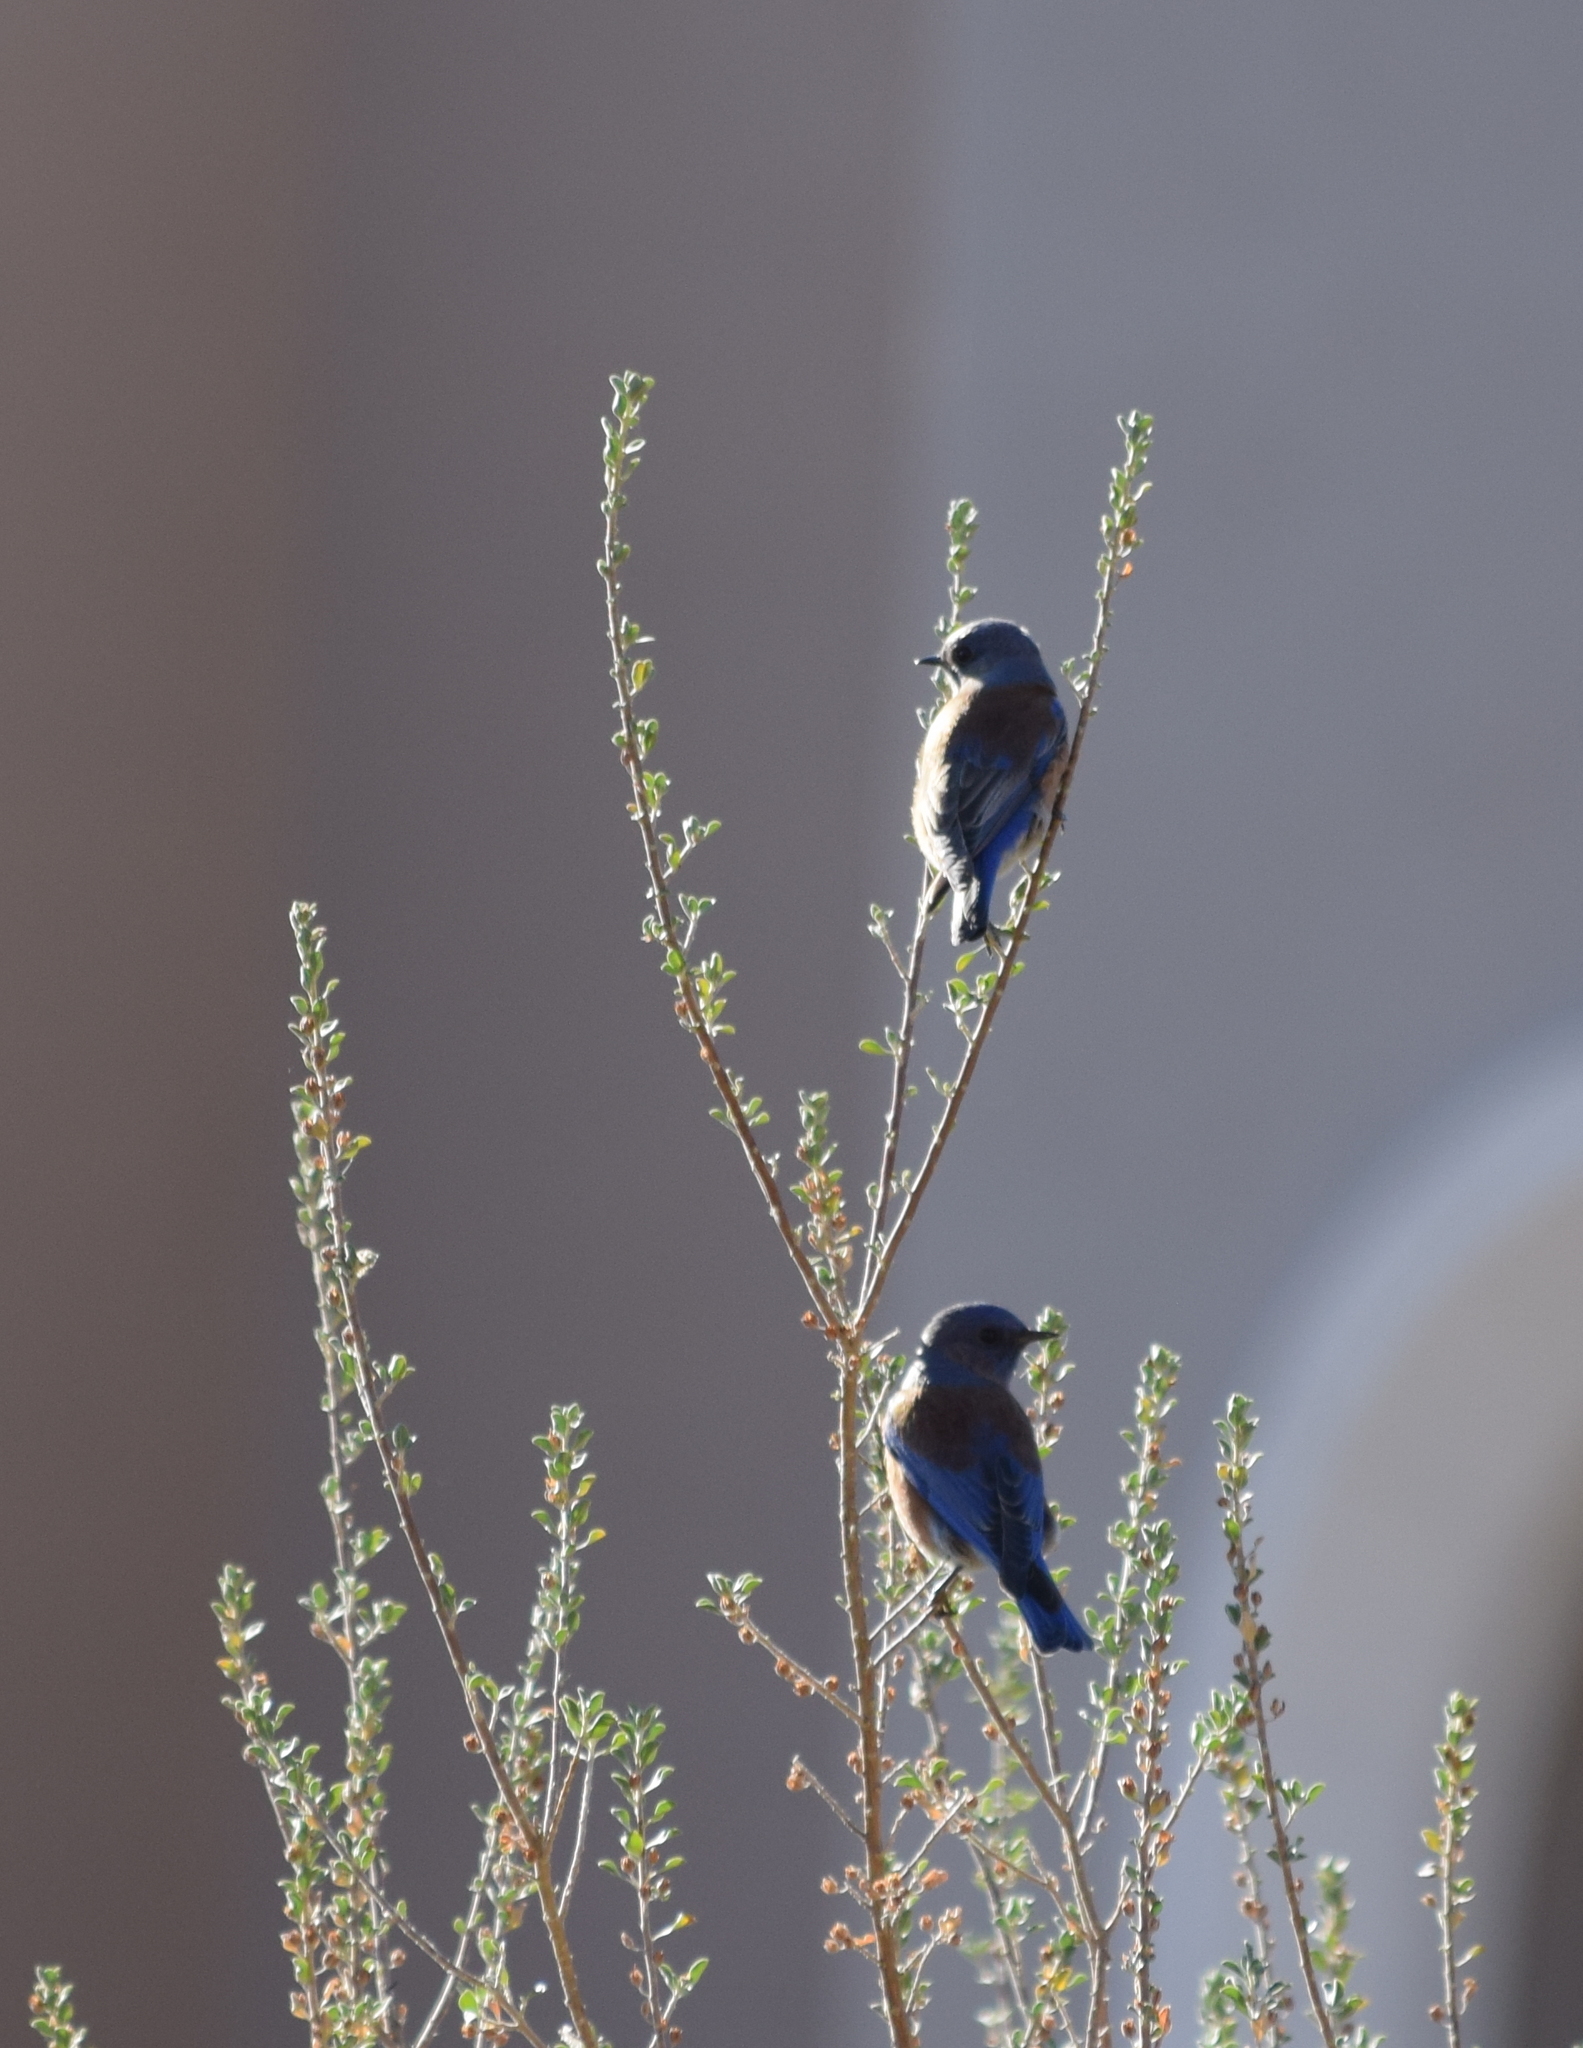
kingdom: Animalia
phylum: Chordata
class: Aves
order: Passeriformes
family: Turdidae
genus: Sialia
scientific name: Sialia mexicana
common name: Western bluebird
